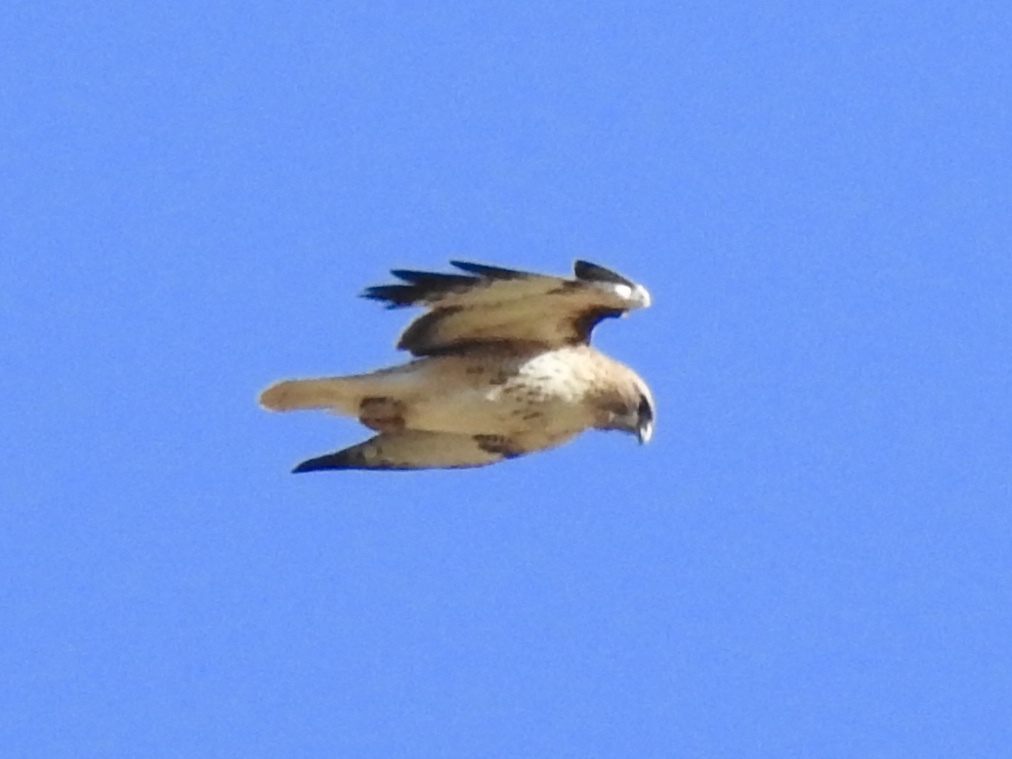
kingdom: Animalia
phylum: Chordata
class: Aves
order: Accipitriformes
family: Accipitridae
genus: Buteo
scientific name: Buteo jamaicensis
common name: Red-tailed hawk
